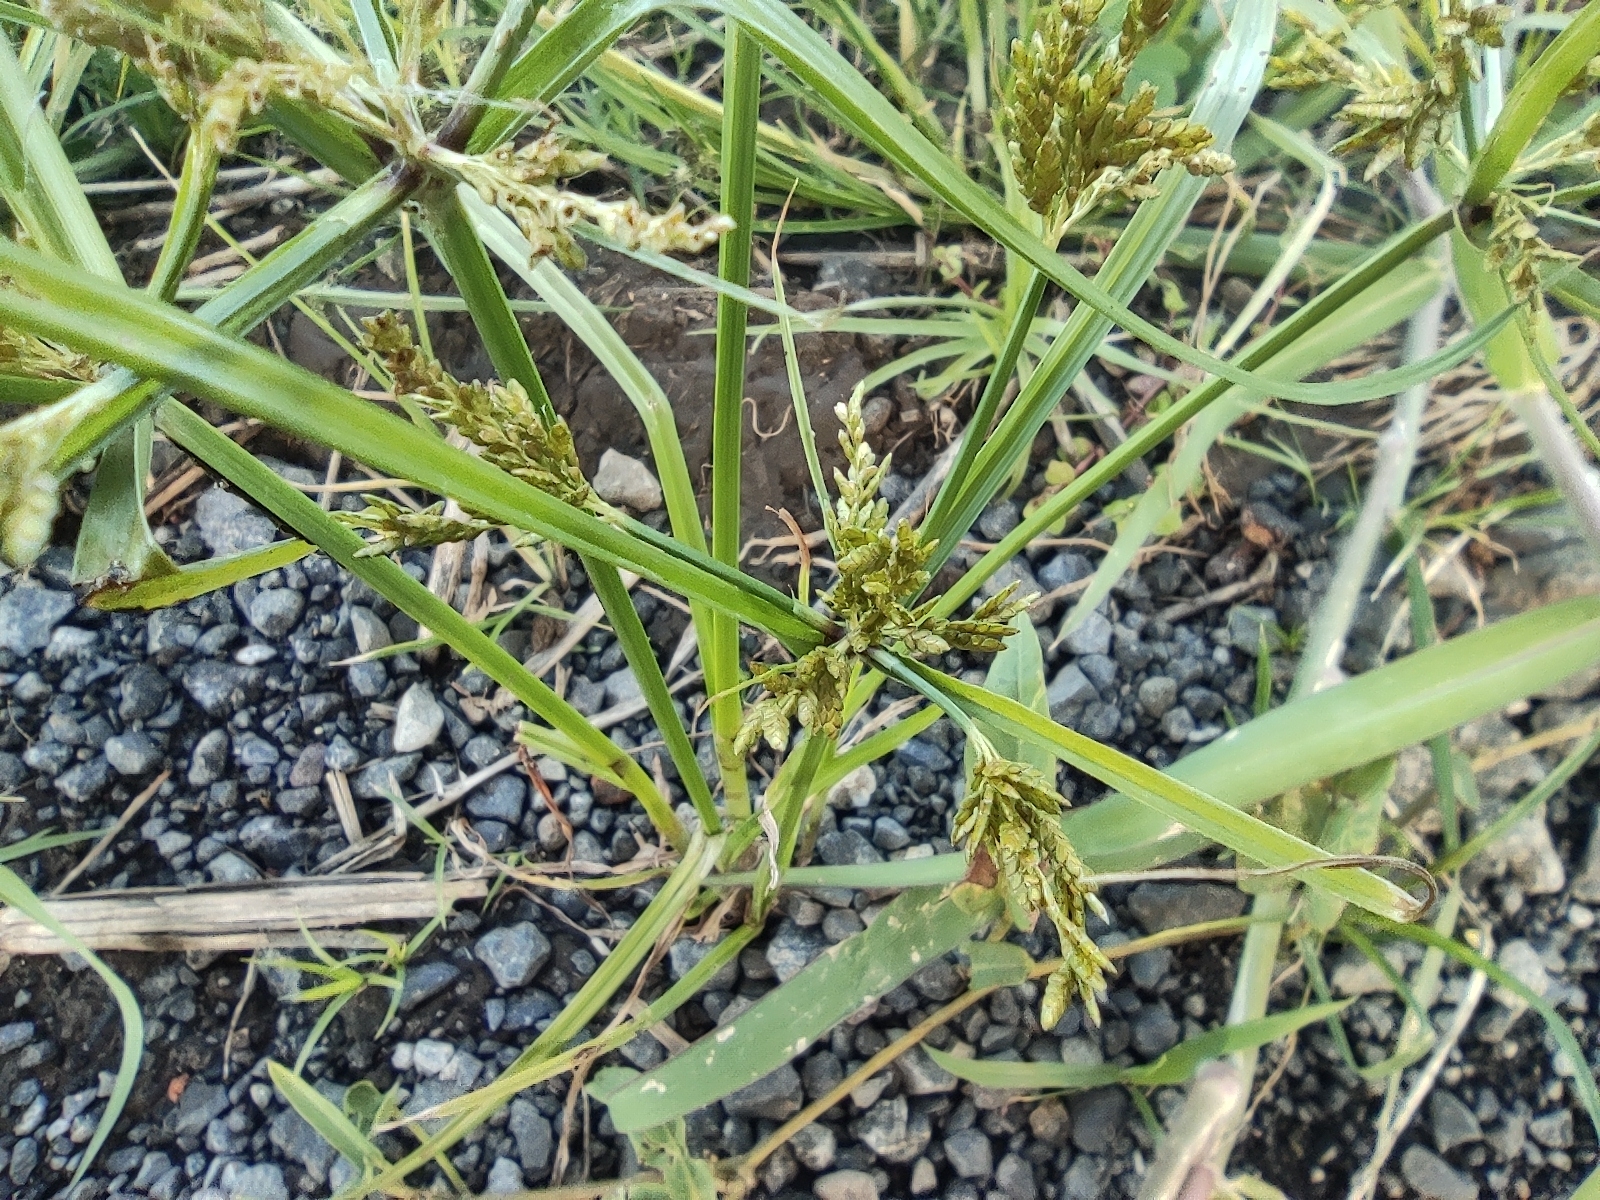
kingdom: Plantae
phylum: Tracheophyta
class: Liliopsida
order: Poales
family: Cyperaceae
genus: Cyperus
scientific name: Cyperus iria
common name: Ricefield flatsedge
